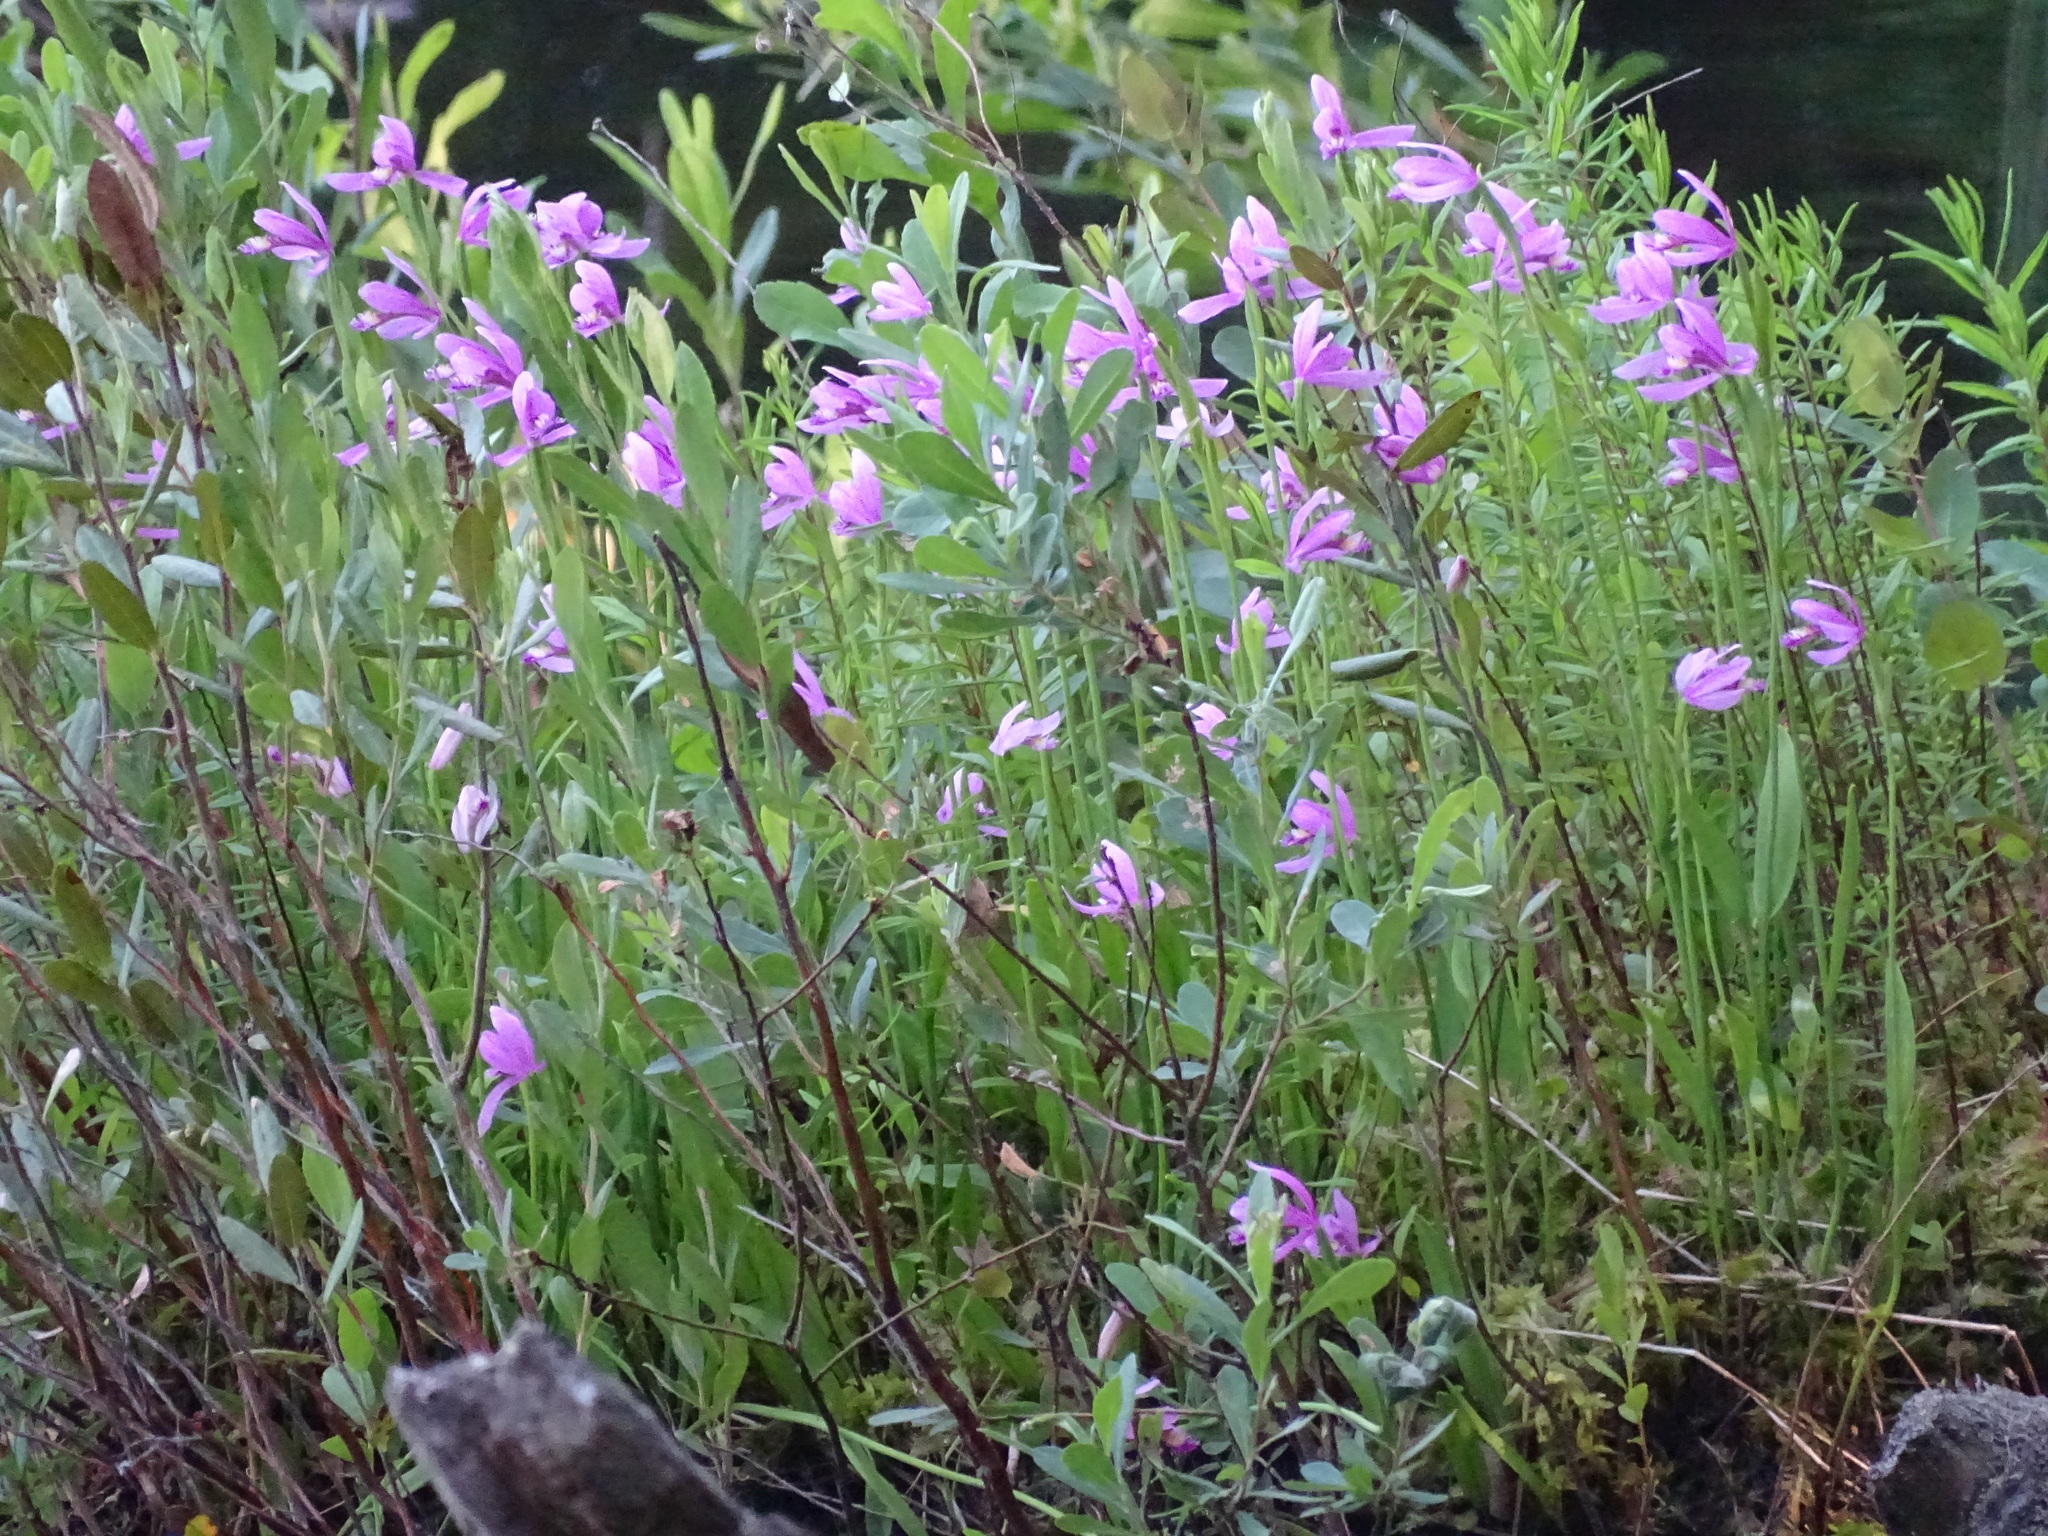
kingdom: Plantae
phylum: Tracheophyta
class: Liliopsida
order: Asparagales
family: Orchidaceae
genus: Pogonia
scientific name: Pogonia ophioglossoides
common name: Rose pogonia
